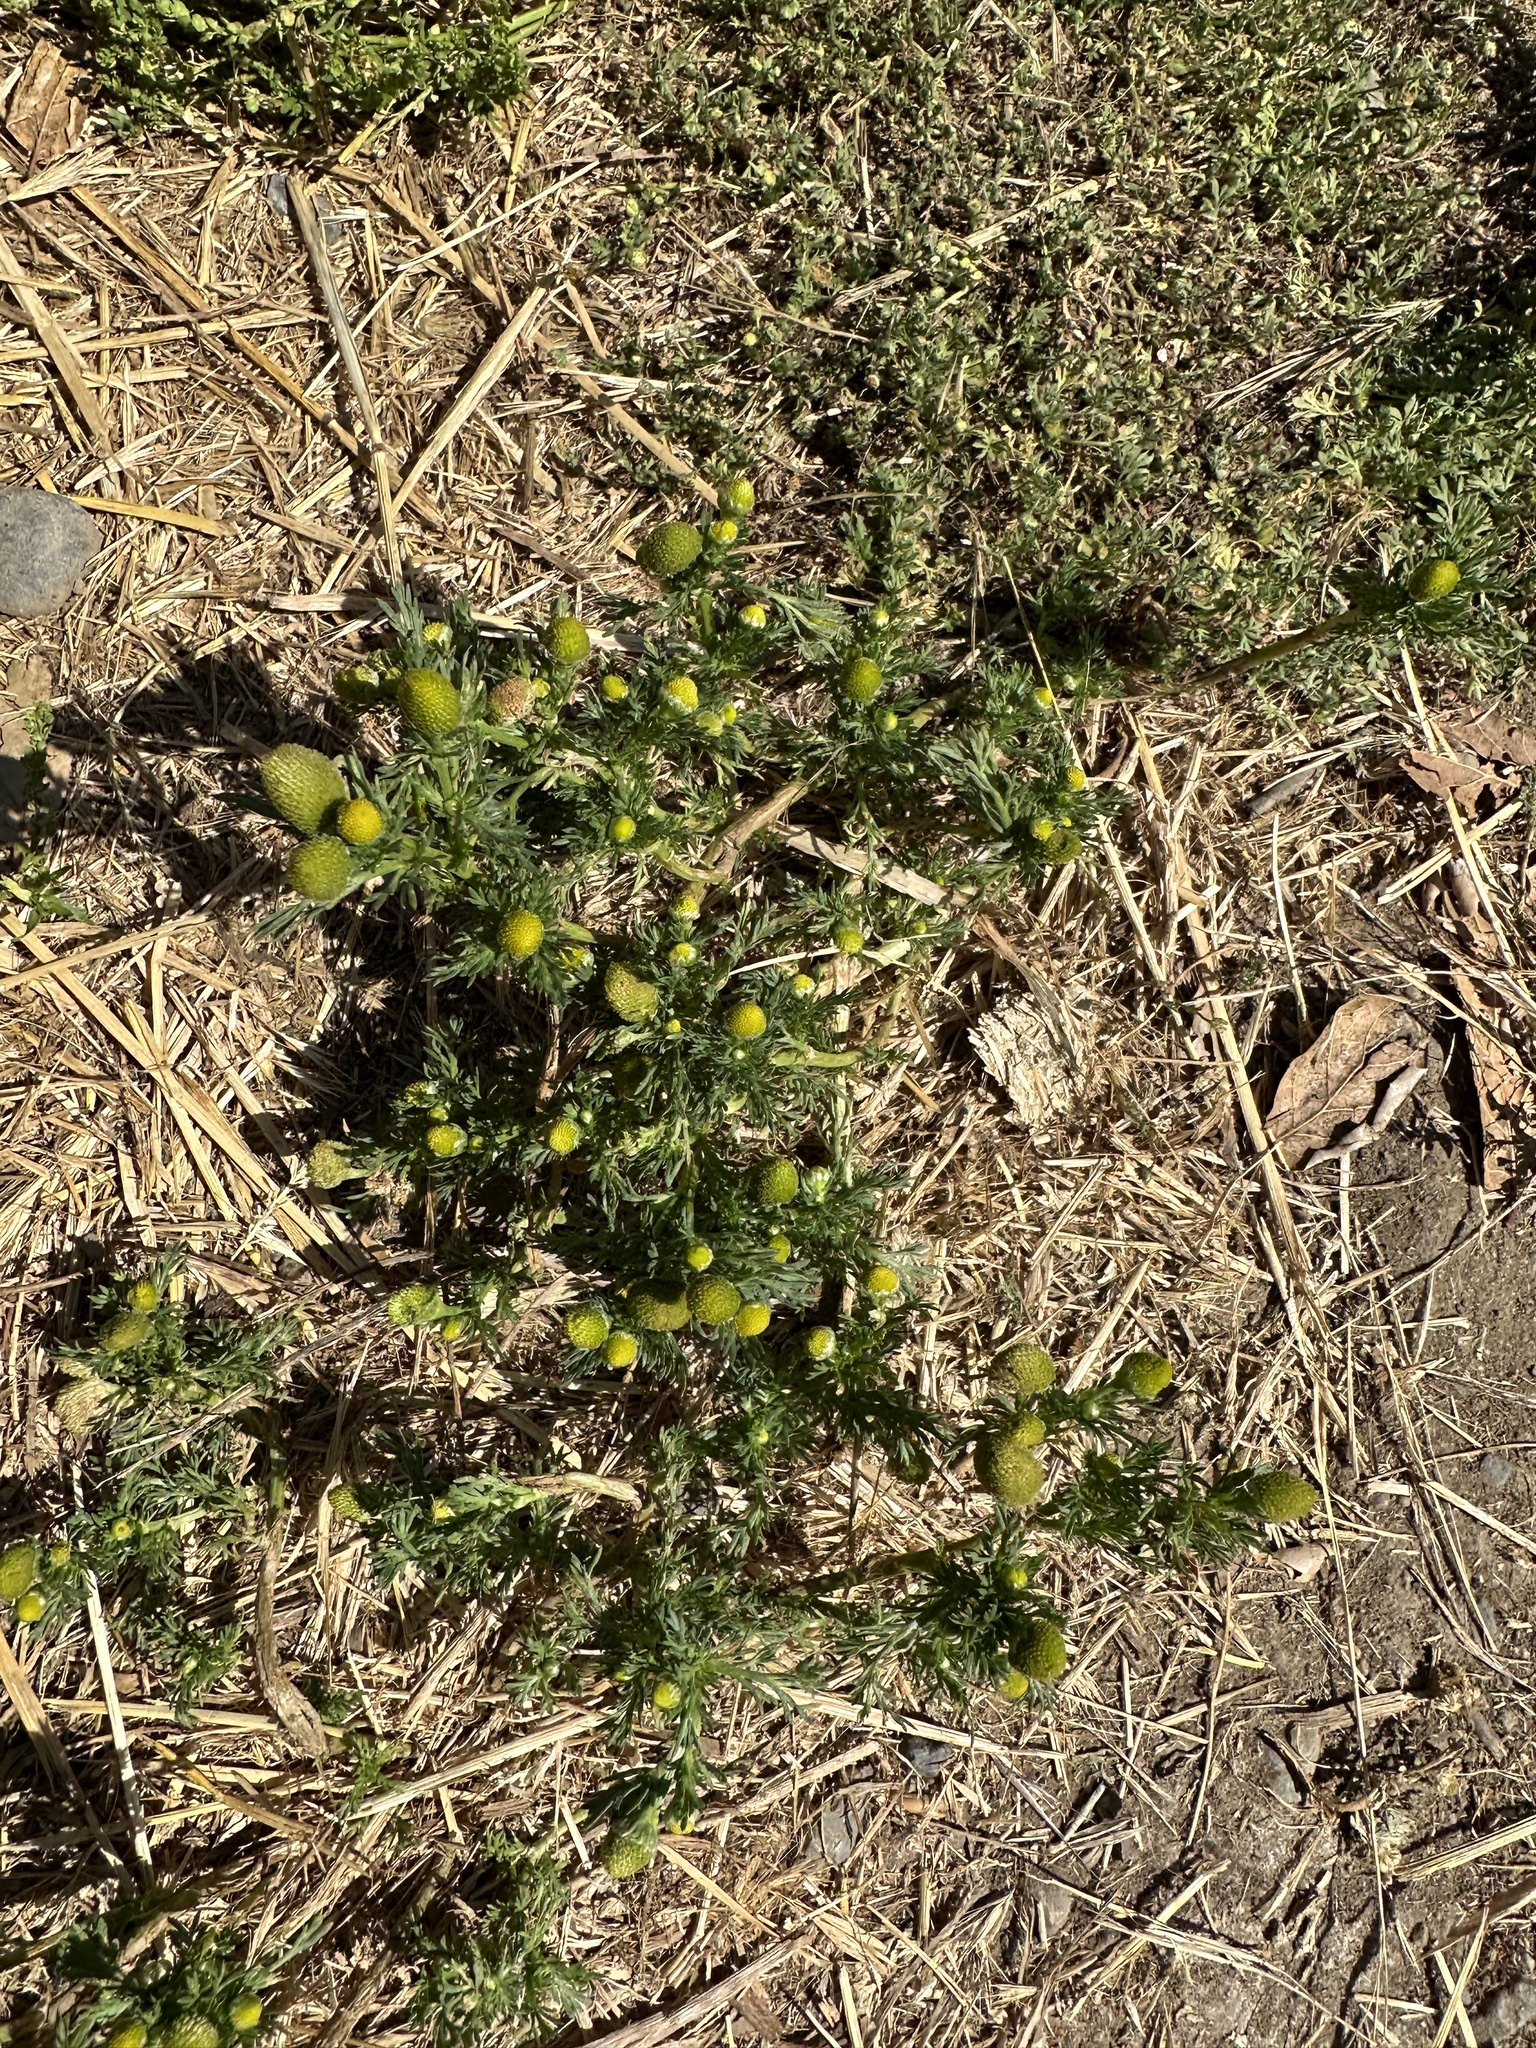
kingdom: Plantae
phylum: Tracheophyta
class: Magnoliopsida
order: Asterales
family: Asteraceae
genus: Matricaria
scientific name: Matricaria discoidea
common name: Disc mayweed
